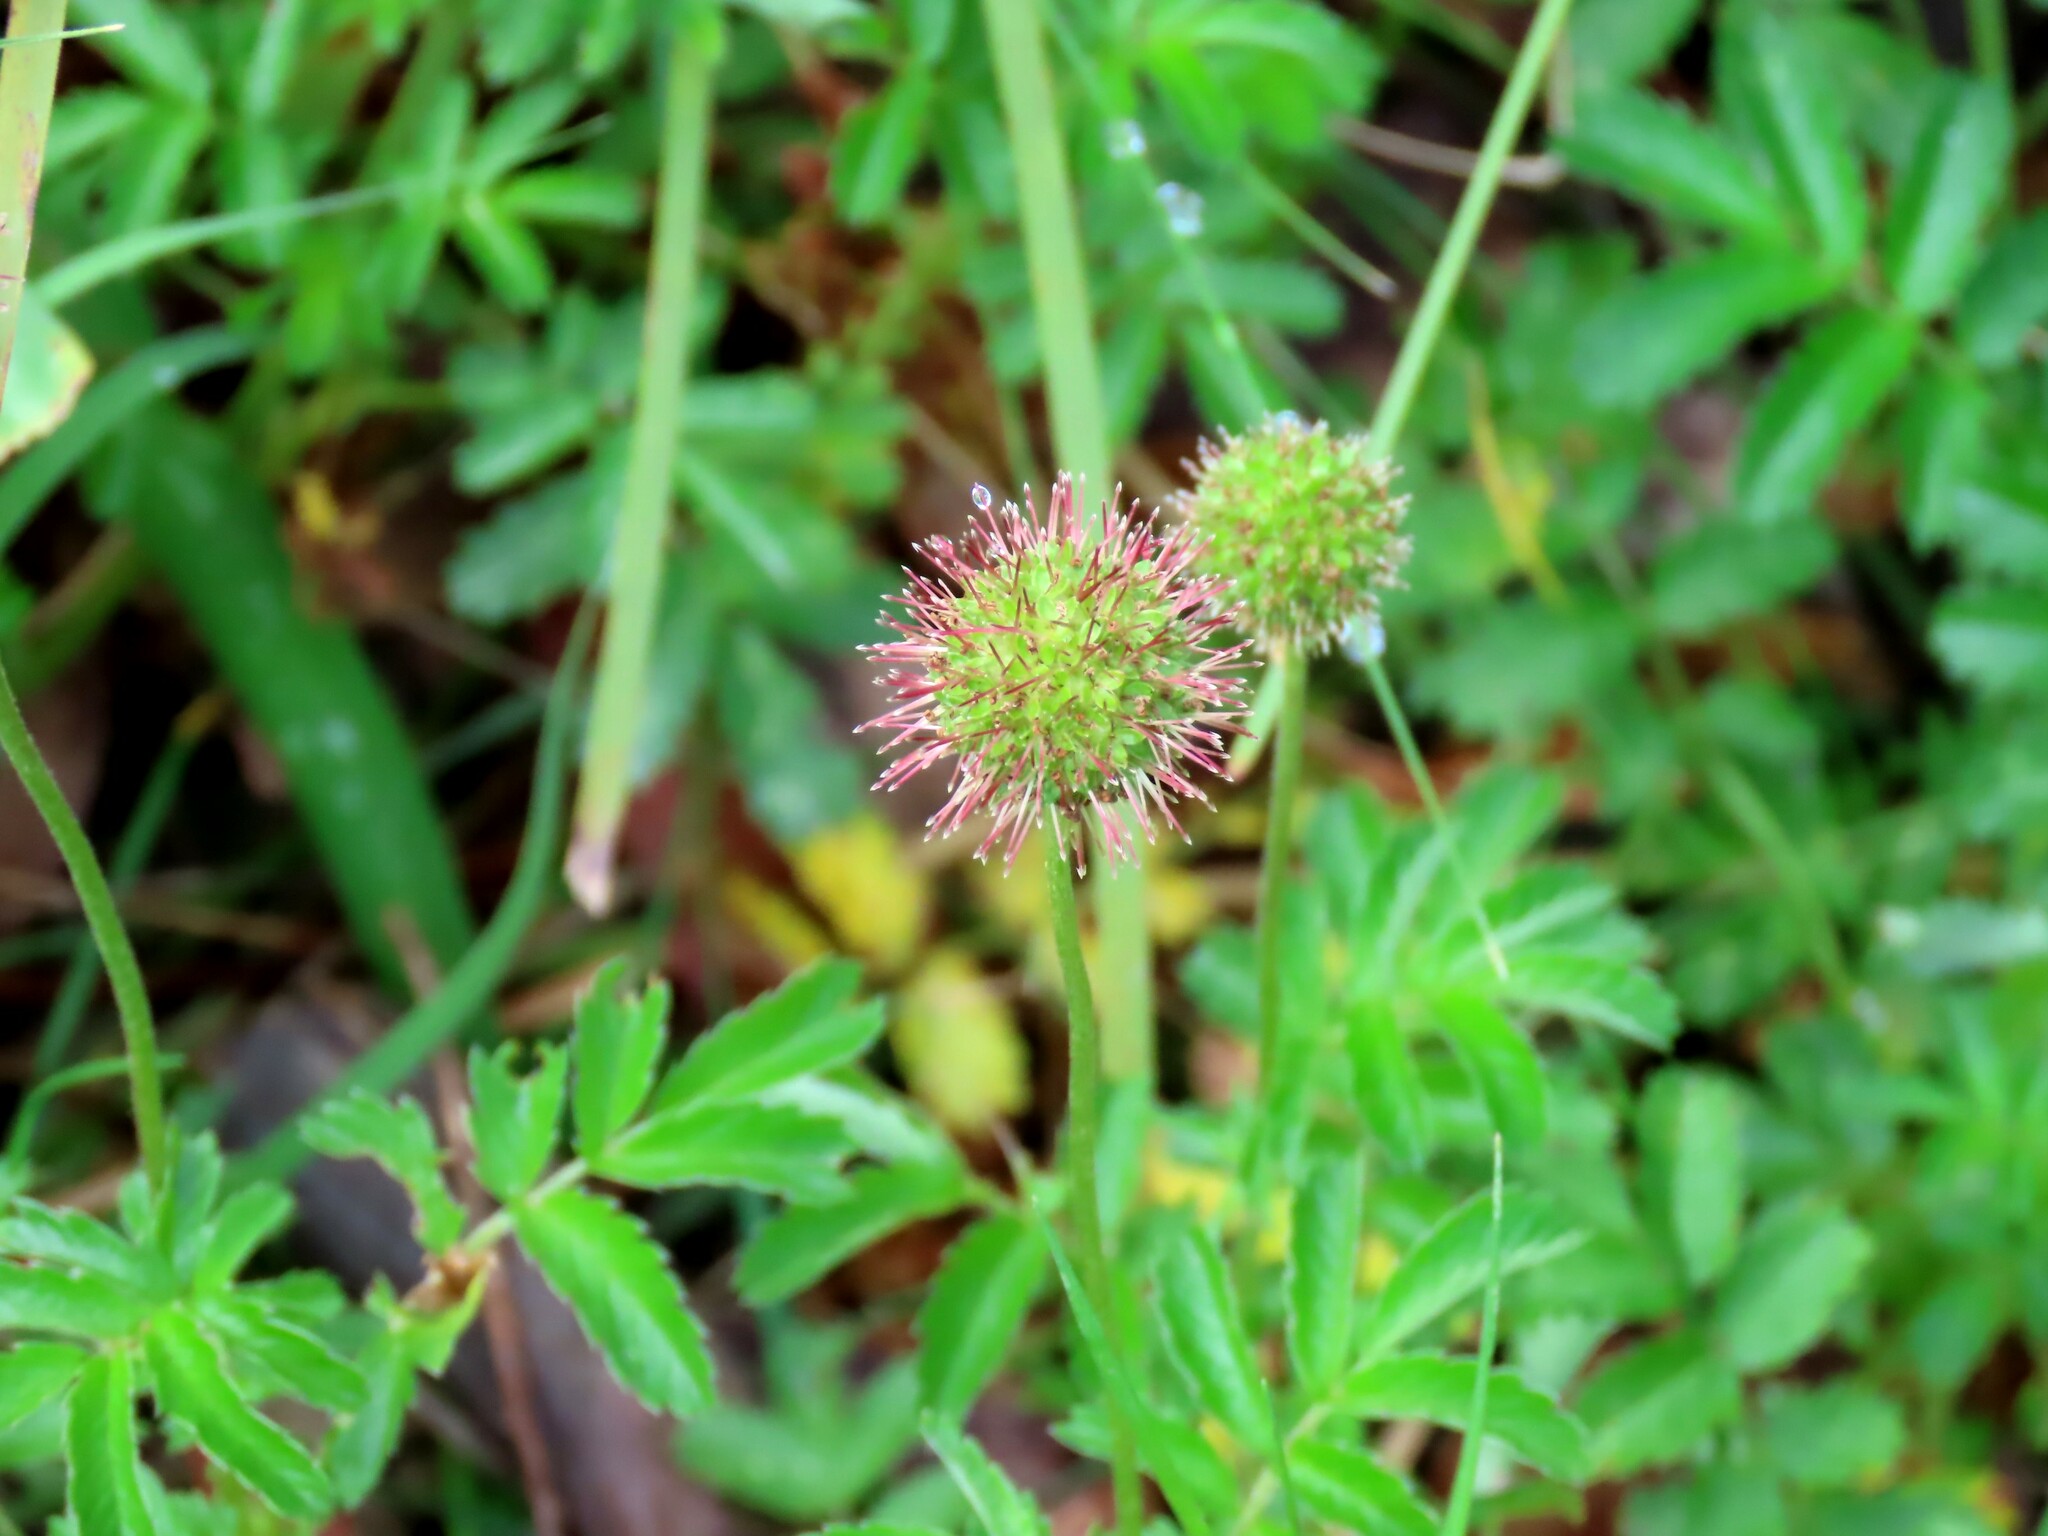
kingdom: Plantae
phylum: Tracheophyta
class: Magnoliopsida
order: Rosales
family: Rosaceae
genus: Acaena
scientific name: Acaena novae-zelandiae
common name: Pirri-pirri-bur
